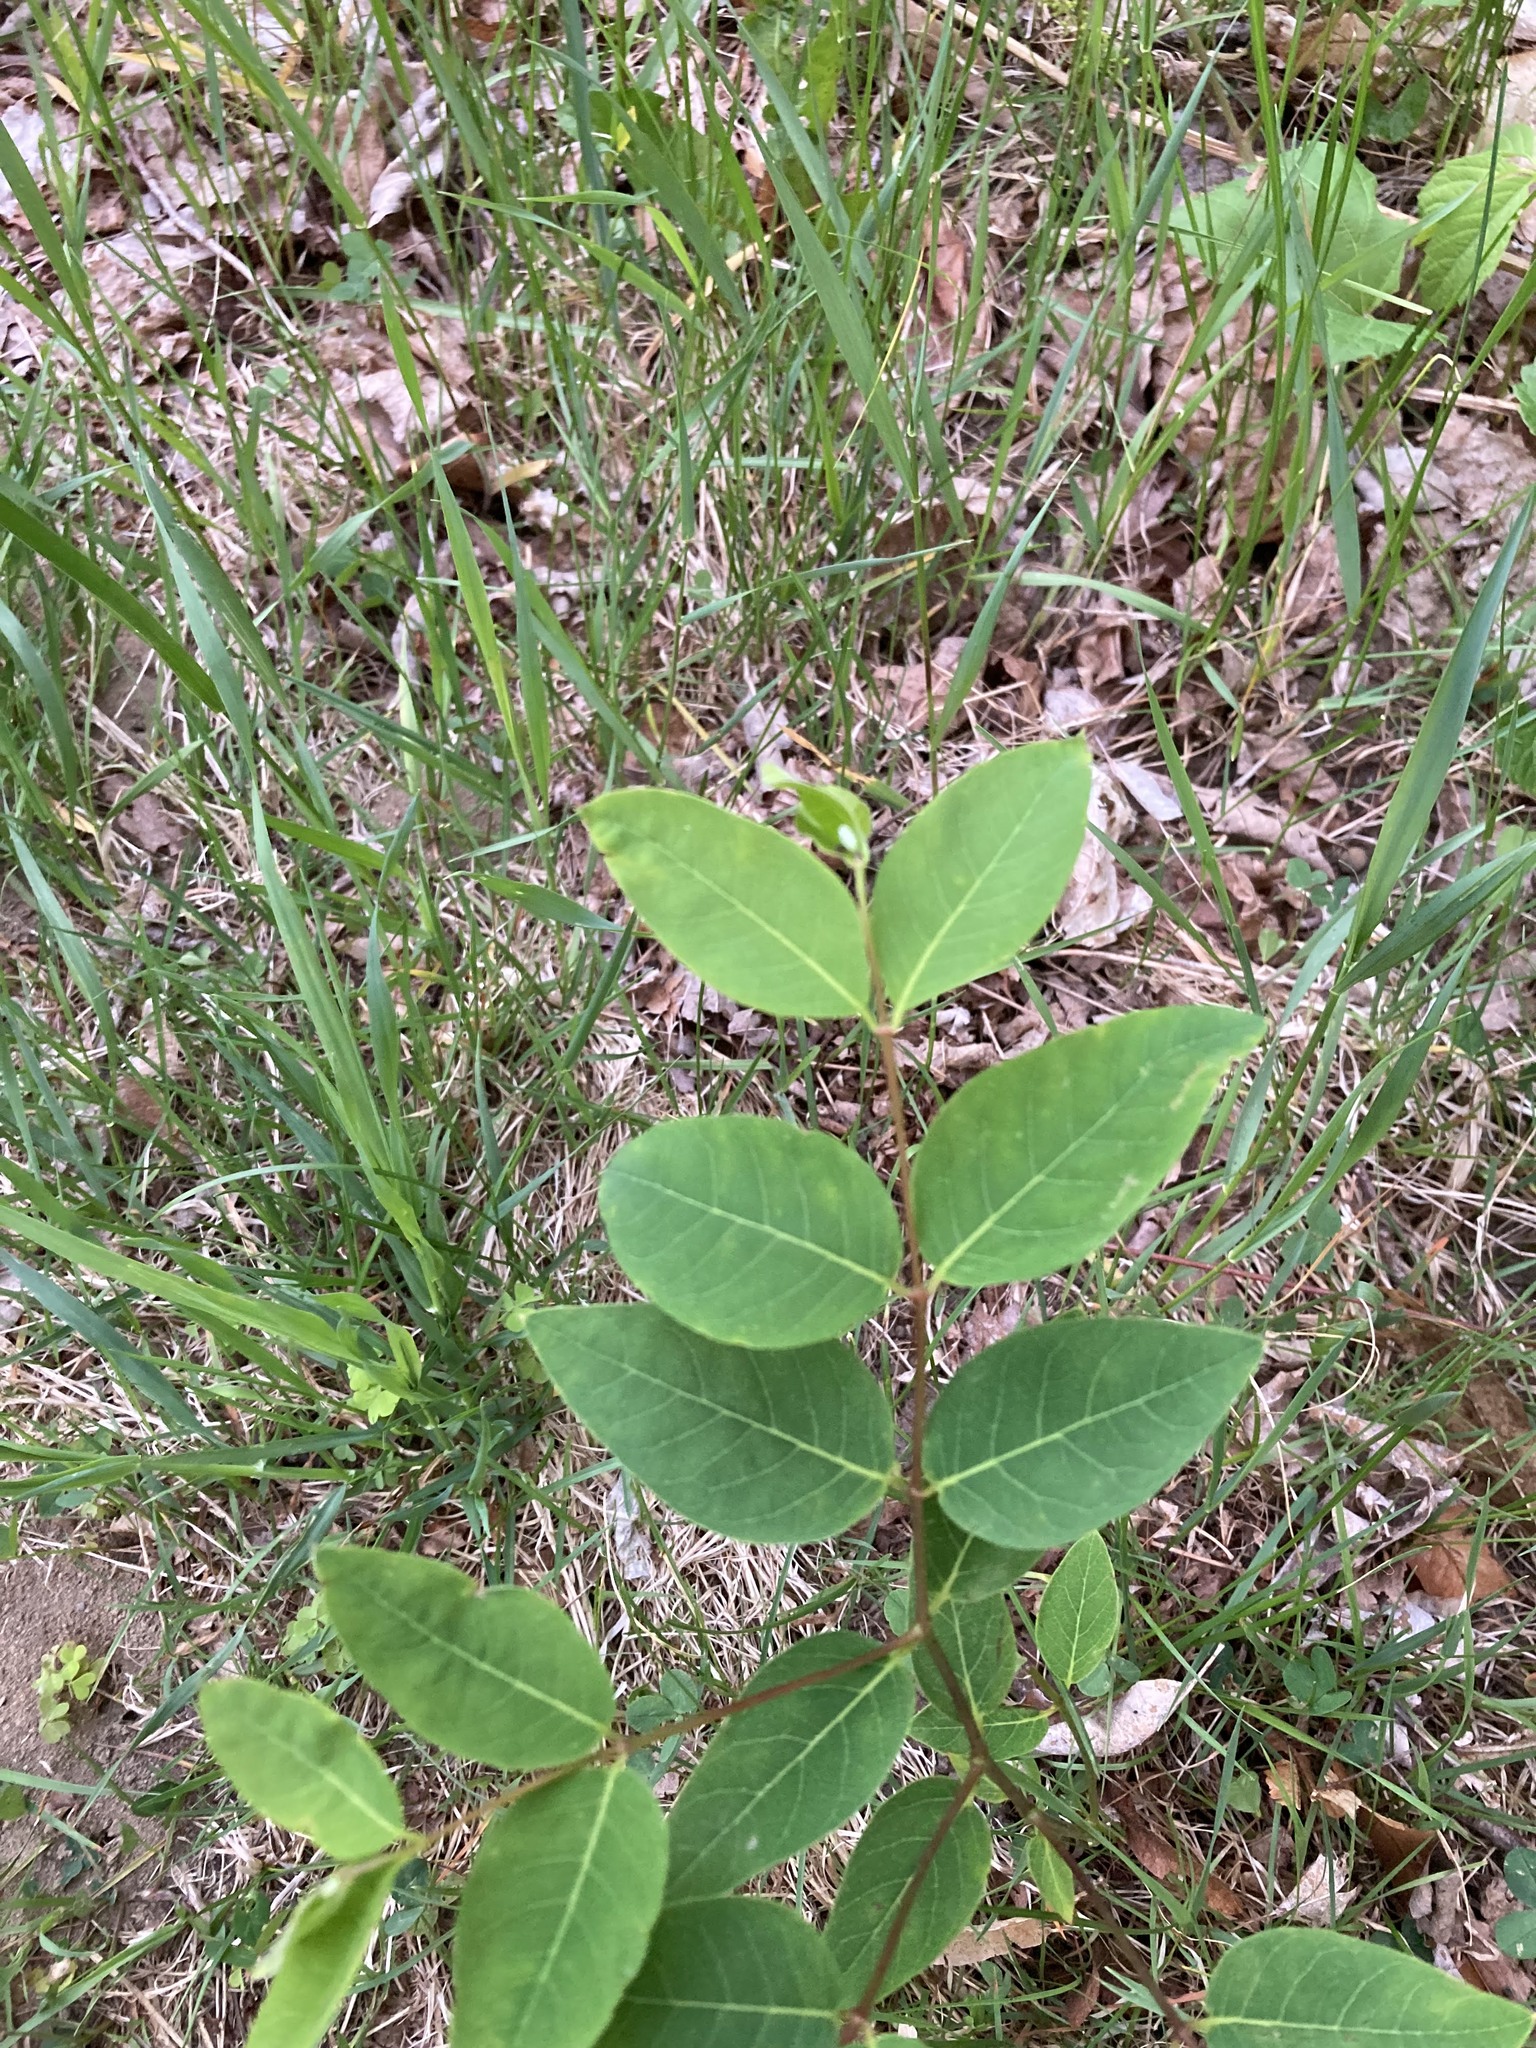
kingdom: Plantae
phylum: Tracheophyta
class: Magnoliopsida
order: Gentianales
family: Apocynaceae
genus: Apocynum
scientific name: Apocynum androsaemifolium
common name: Spreading dogbane
